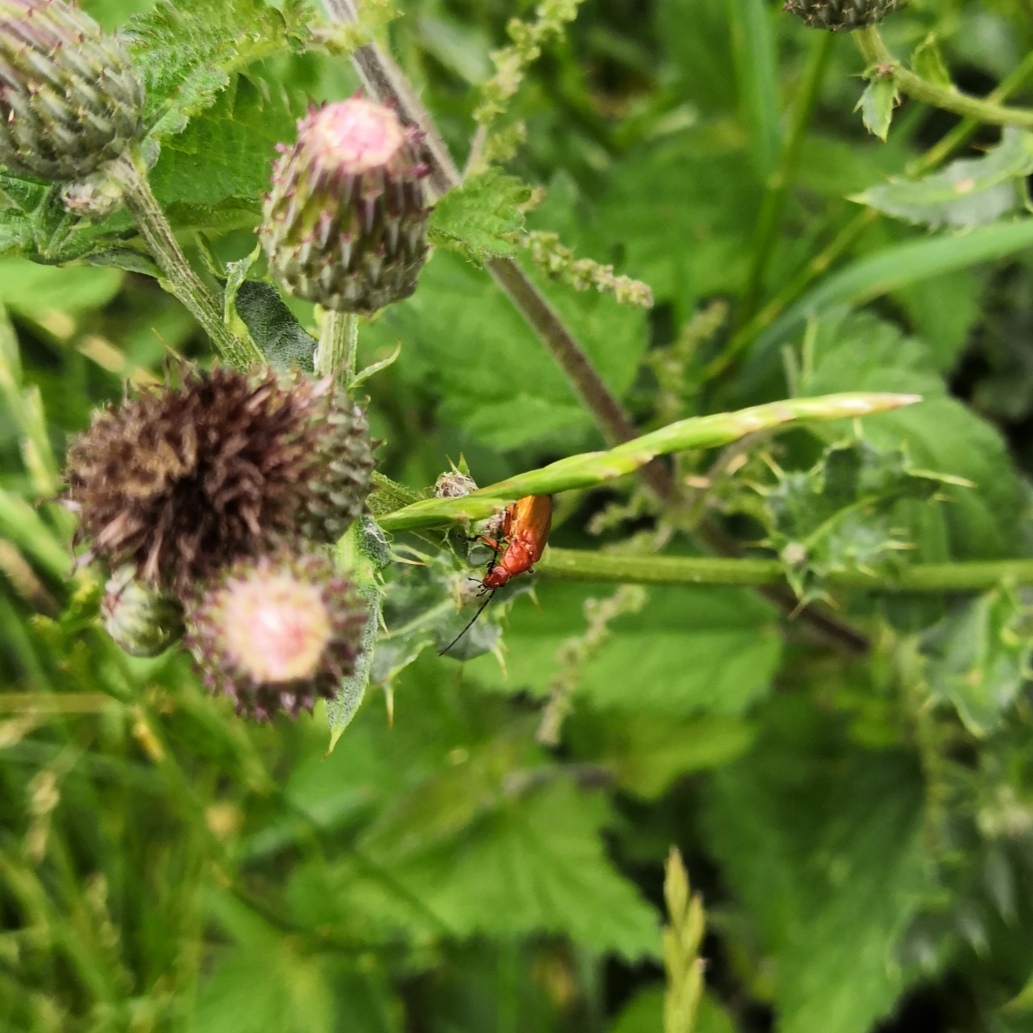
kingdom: Animalia
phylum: Arthropoda
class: Insecta
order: Coleoptera
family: Cantharidae
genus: Rhagonycha
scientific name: Rhagonycha fulva
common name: Common red soldier beetle
